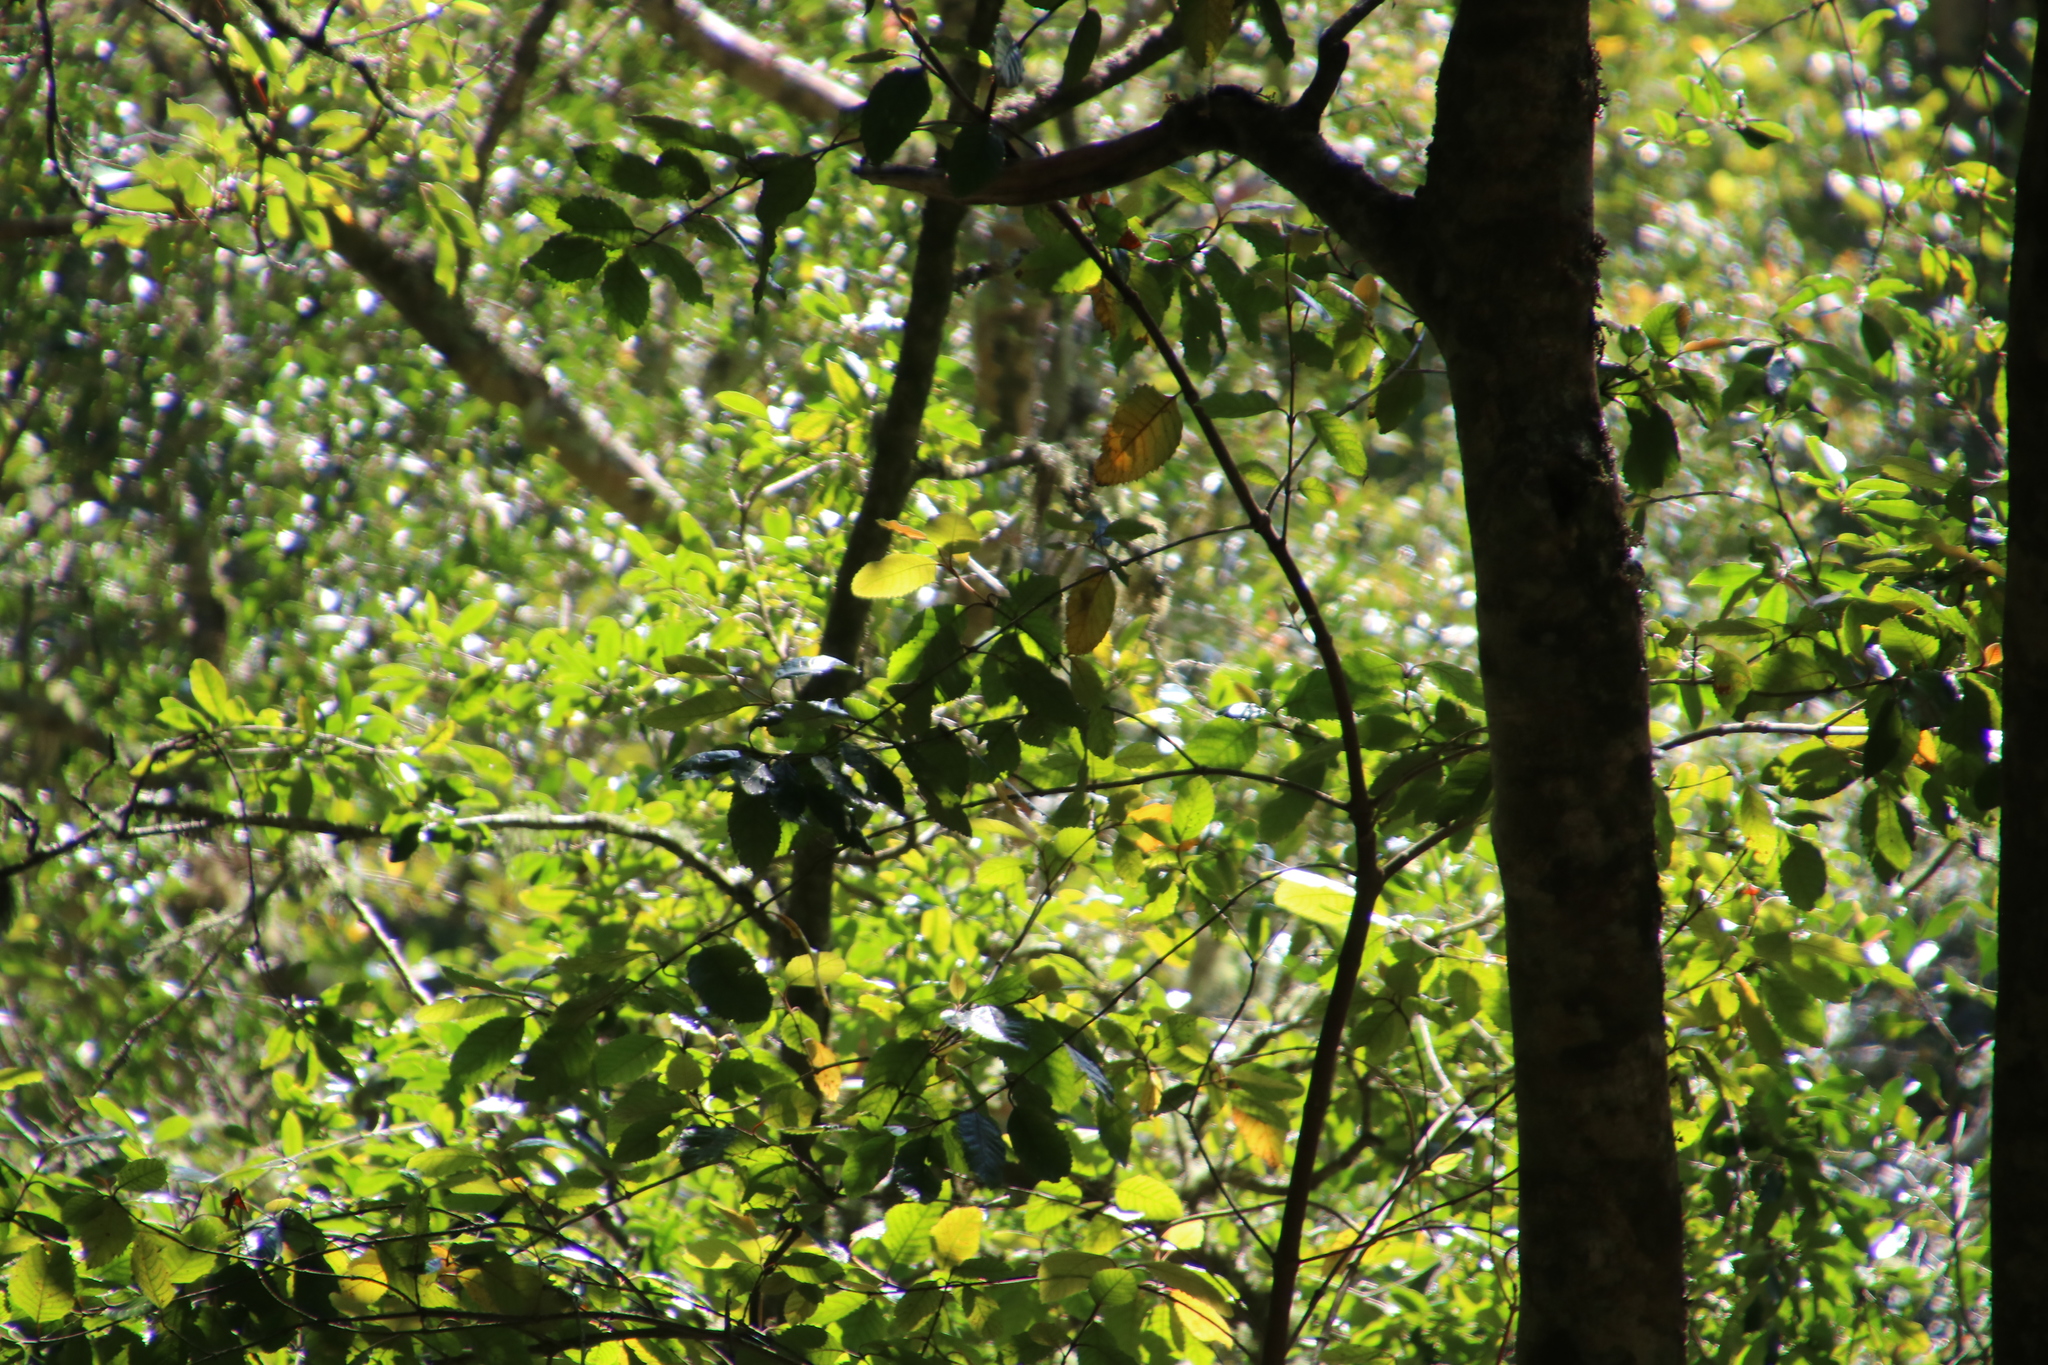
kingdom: Plantae
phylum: Tracheophyta
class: Magnoliopsida
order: Cornales
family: Curtisiaceae
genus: Curtisia
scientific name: Curtisia dentata
